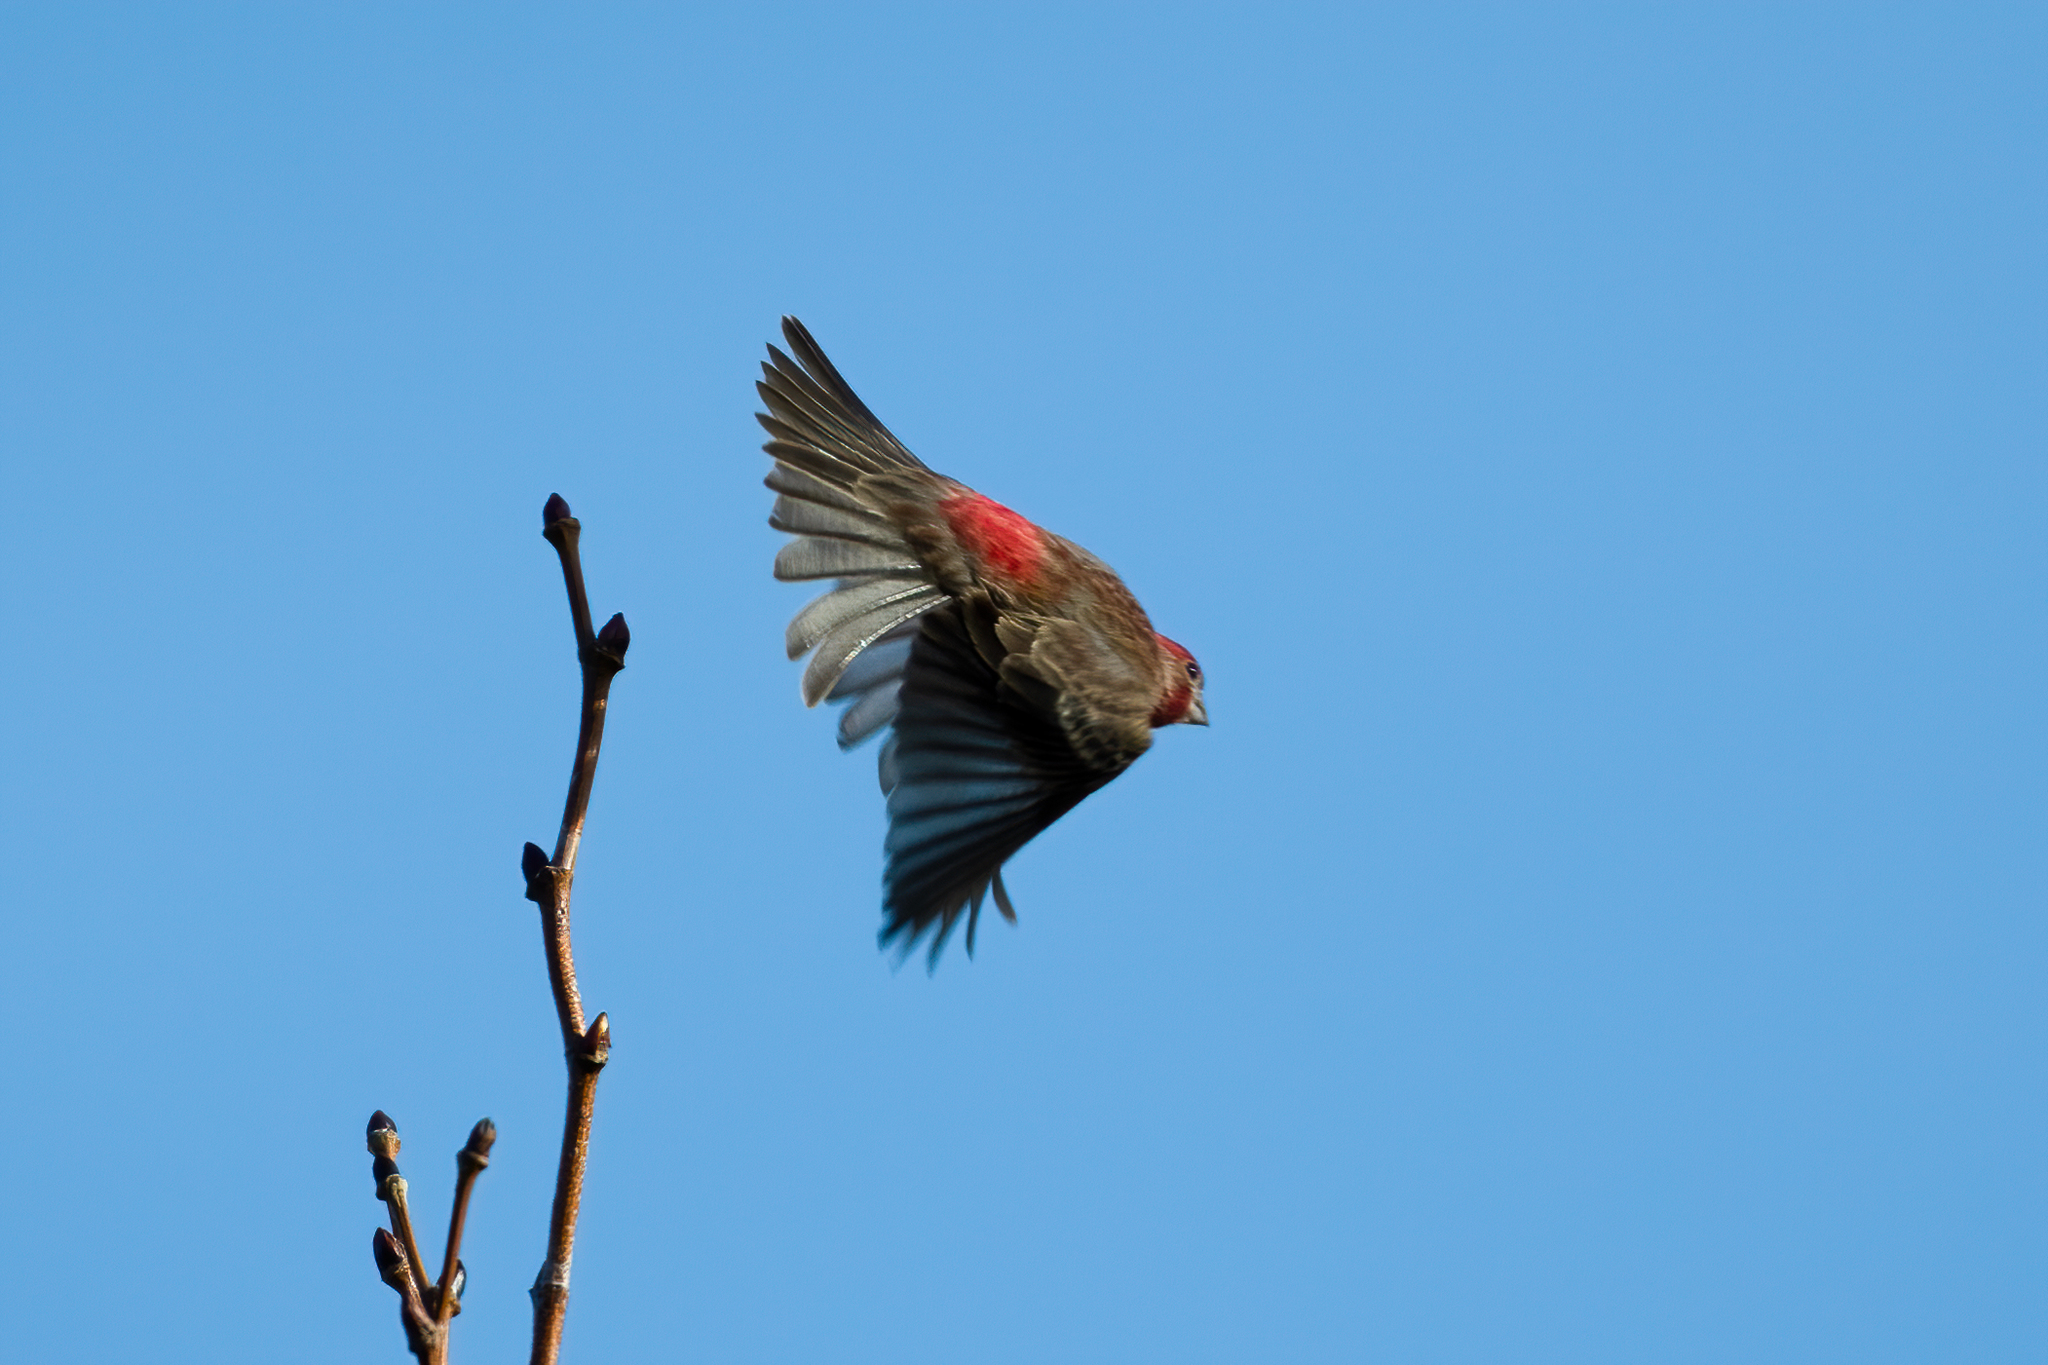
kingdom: Animalia
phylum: Chordata
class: Aves
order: Passeriformes
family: Fringillidae
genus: Haemorhous
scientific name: Haemorhous mexicanus
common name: House finch
